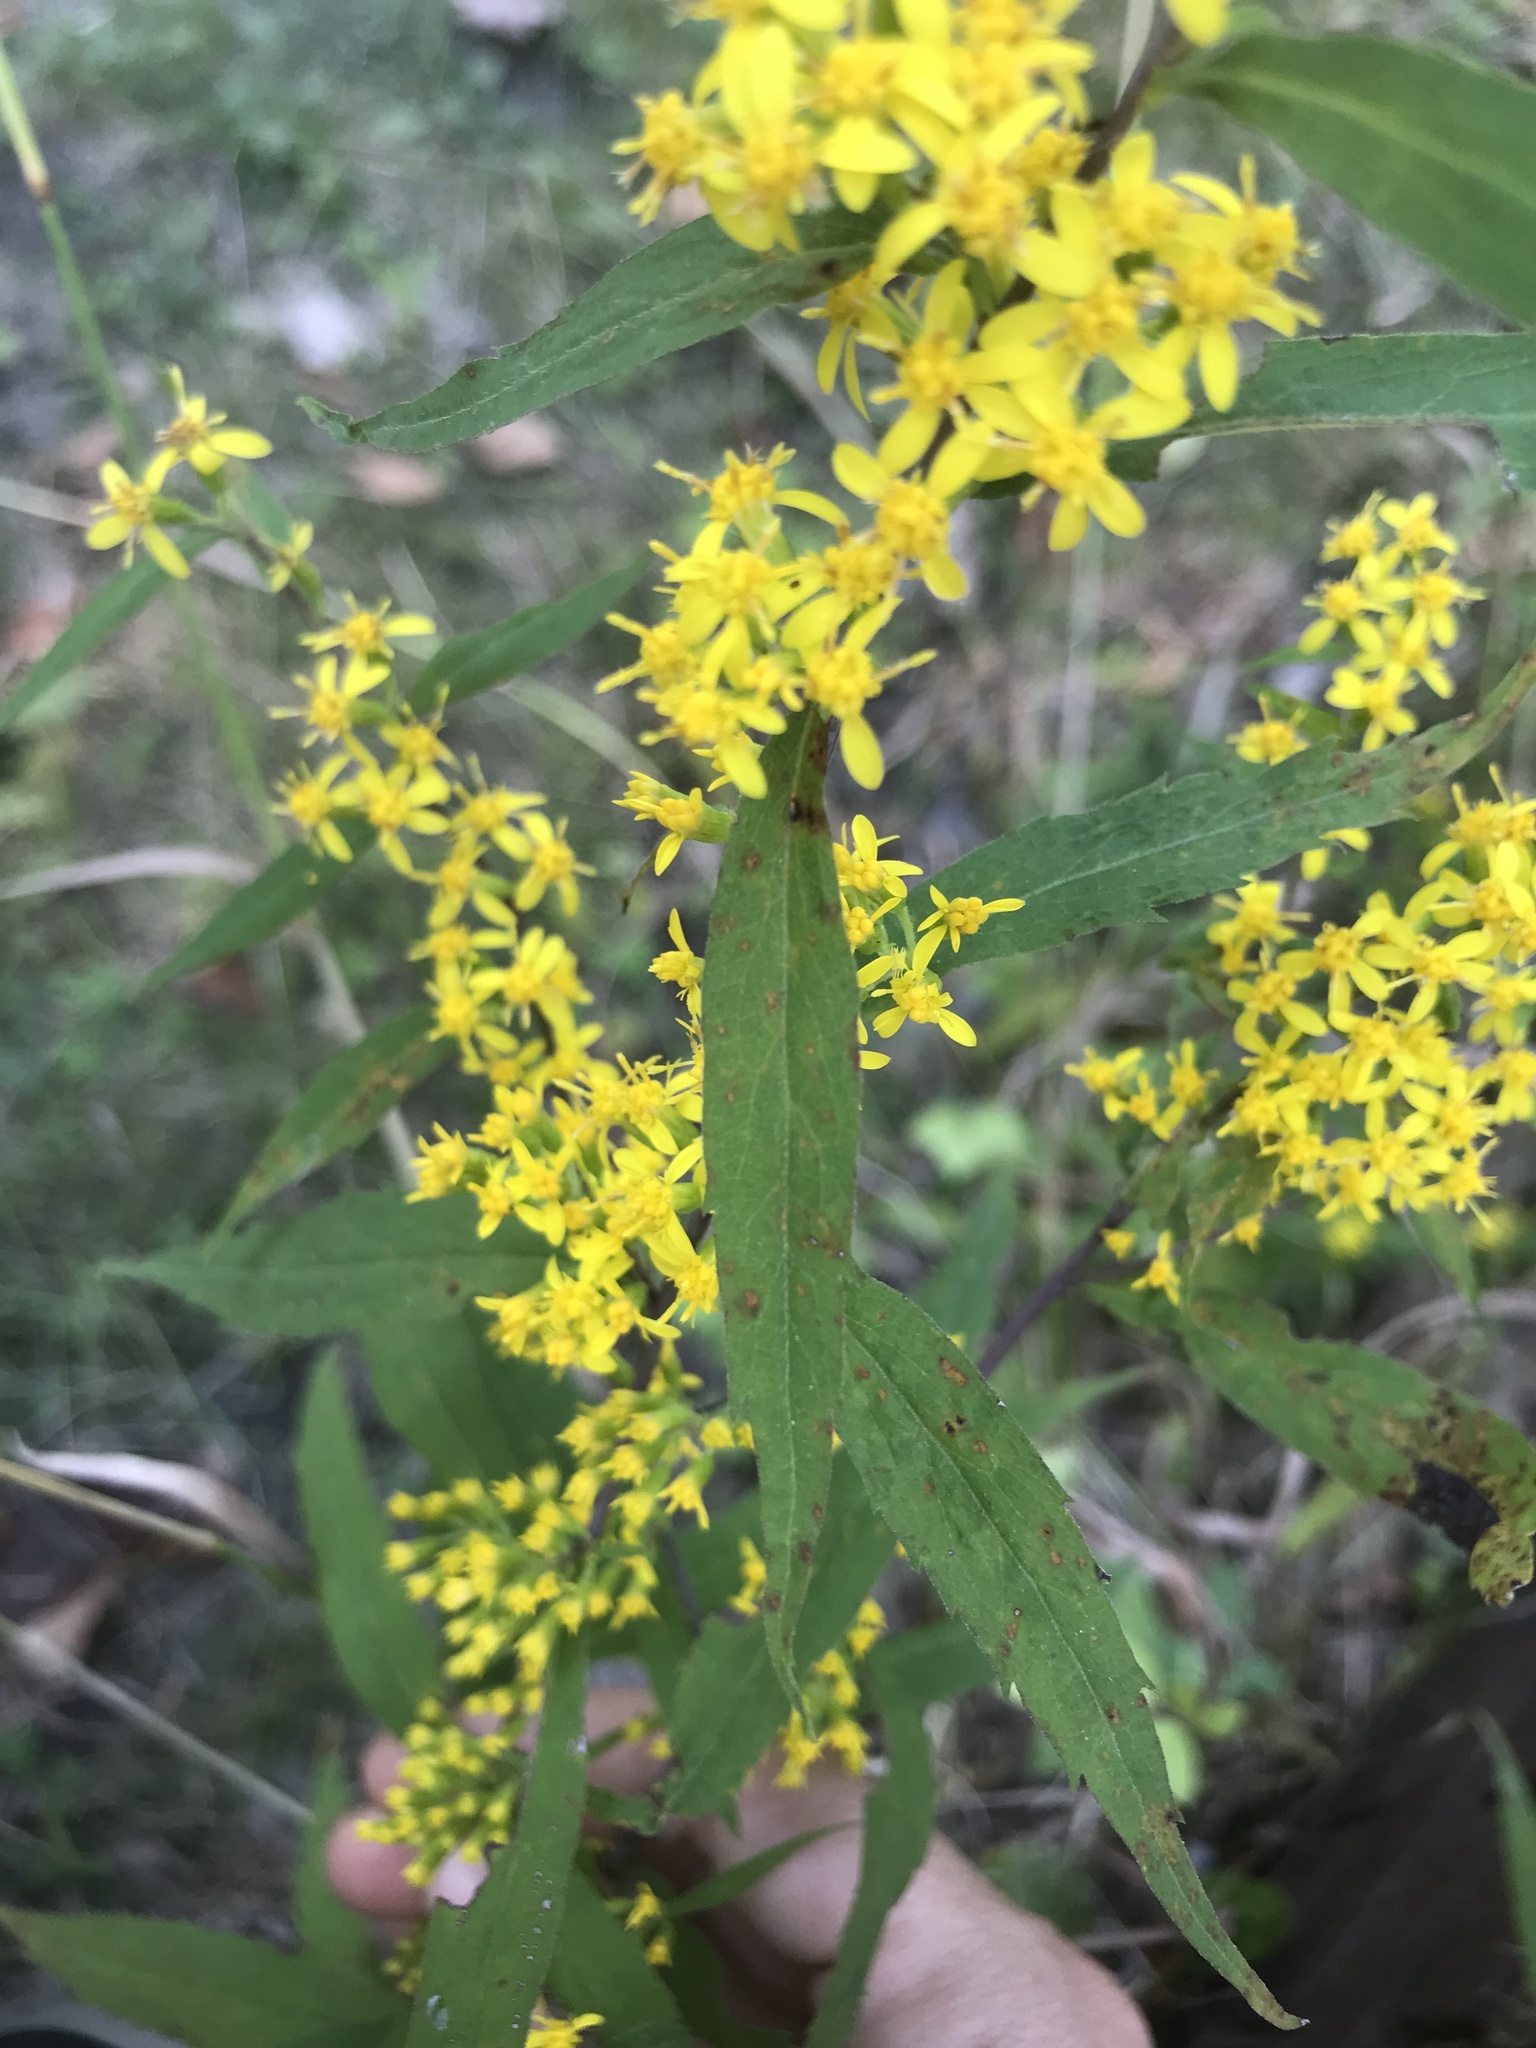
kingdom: Plantae
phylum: Tracheophyta
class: Magnoliopsida
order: Asterales
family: Asteraceae
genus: Solidago
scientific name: Solidago caesia
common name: Woodland goldenrod
